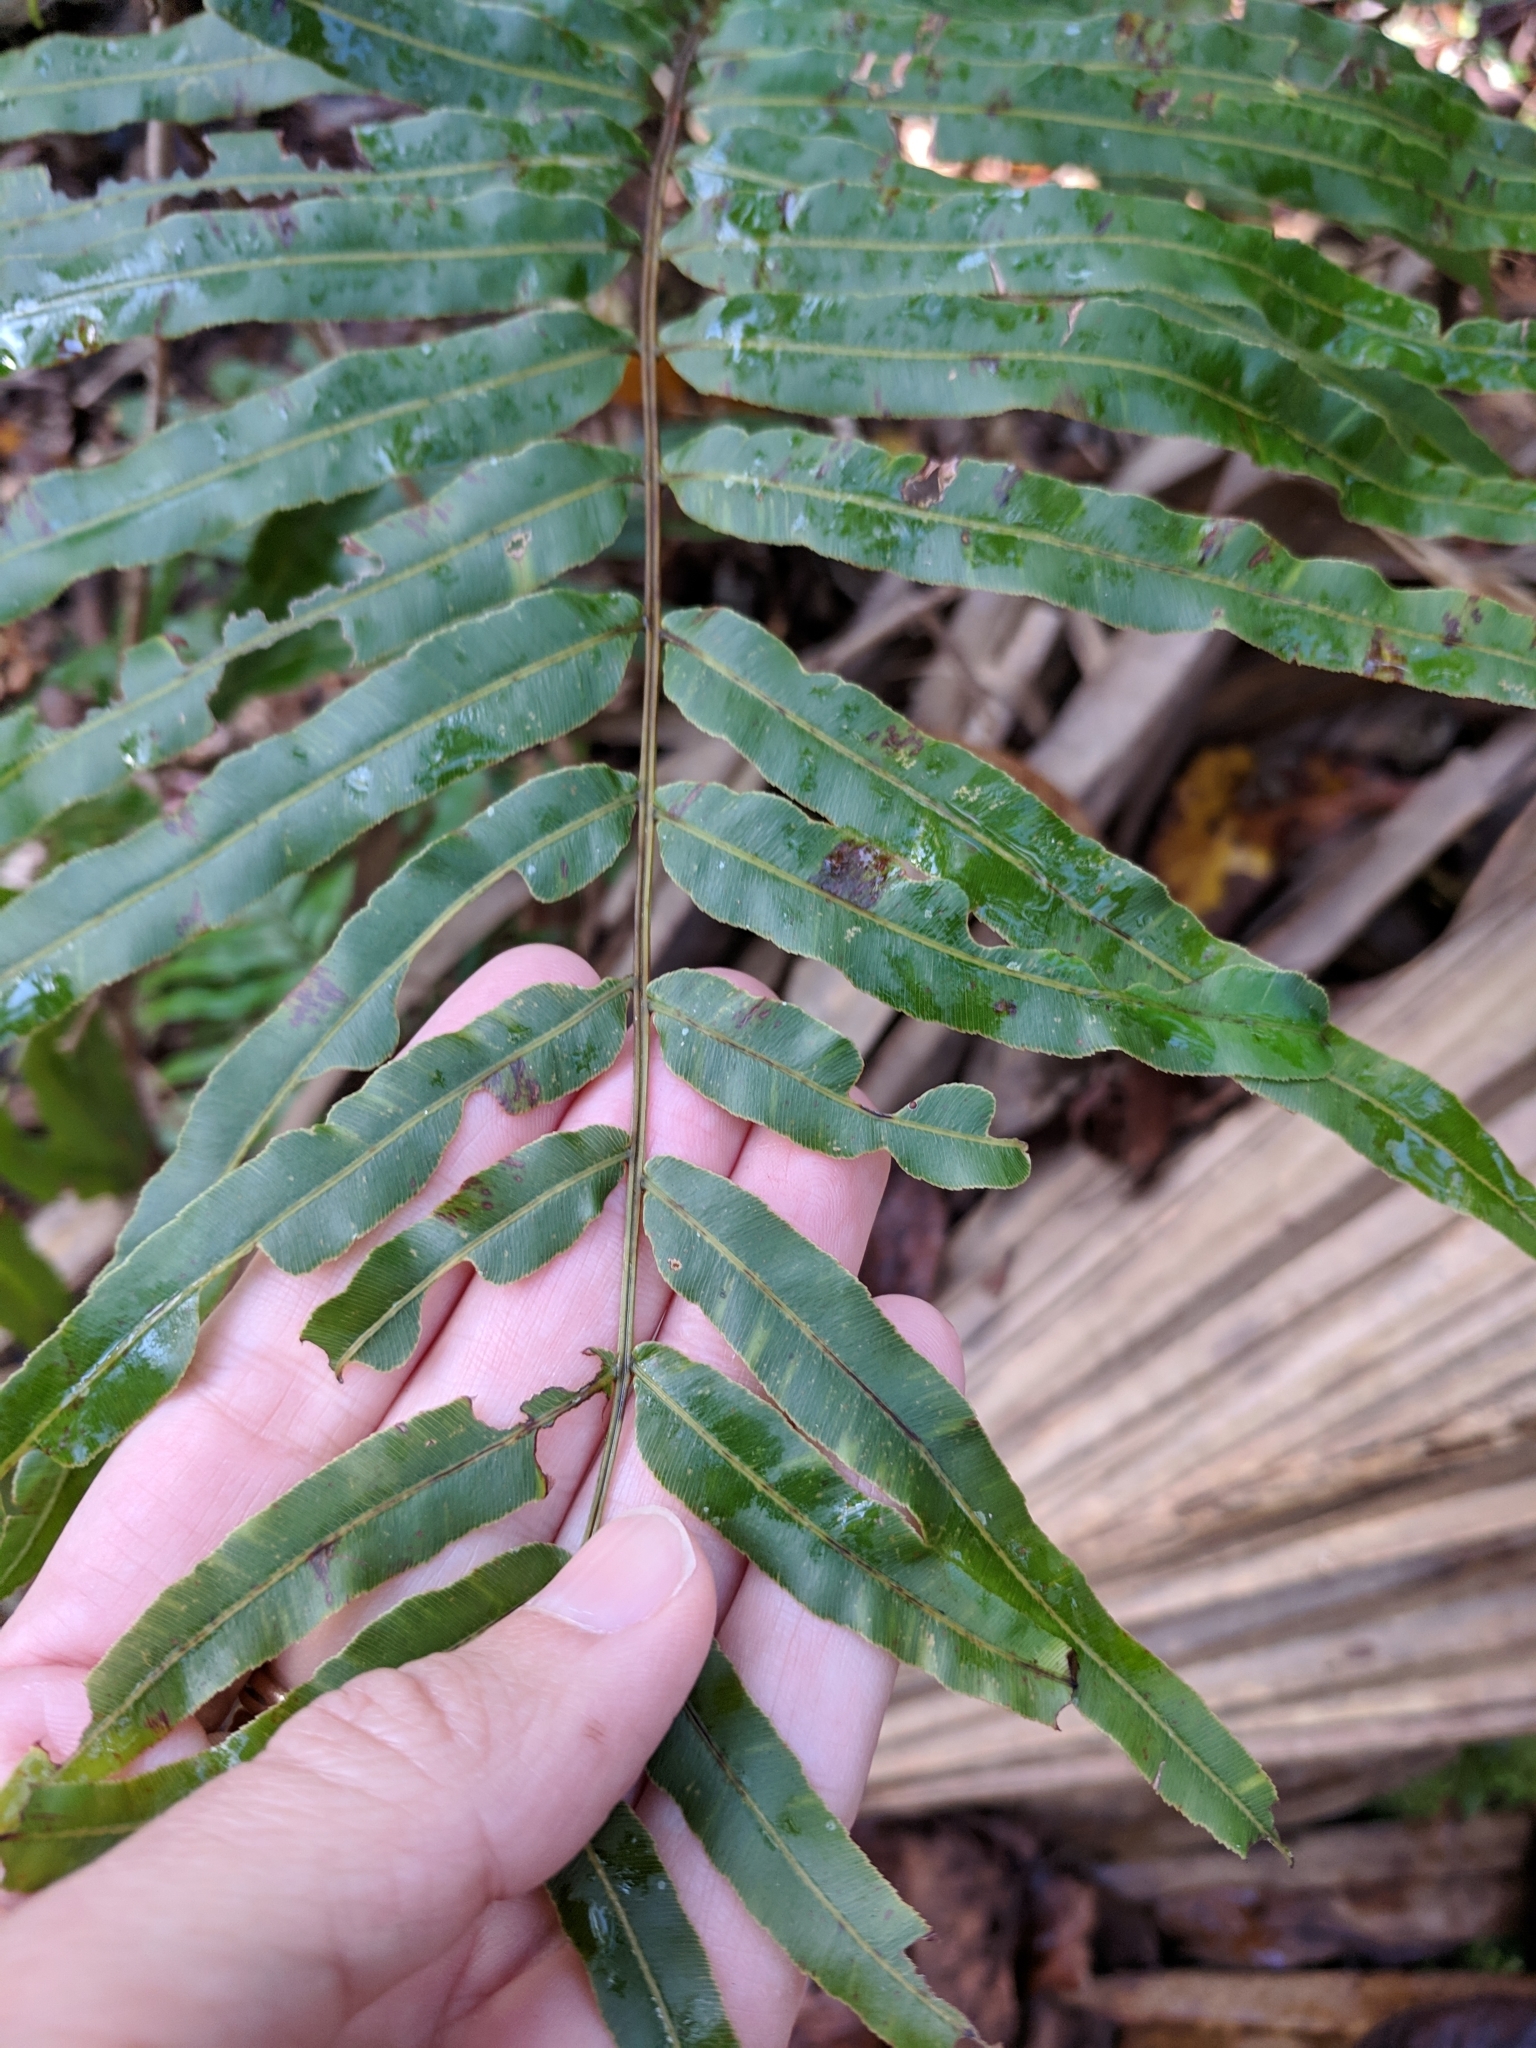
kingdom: Plantae
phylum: Tracheophyta
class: Polypodiopsida
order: Polypodiales
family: Blechnaceae
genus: Telmatoblechnum
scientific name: Telmatoblechnum serrulatum
